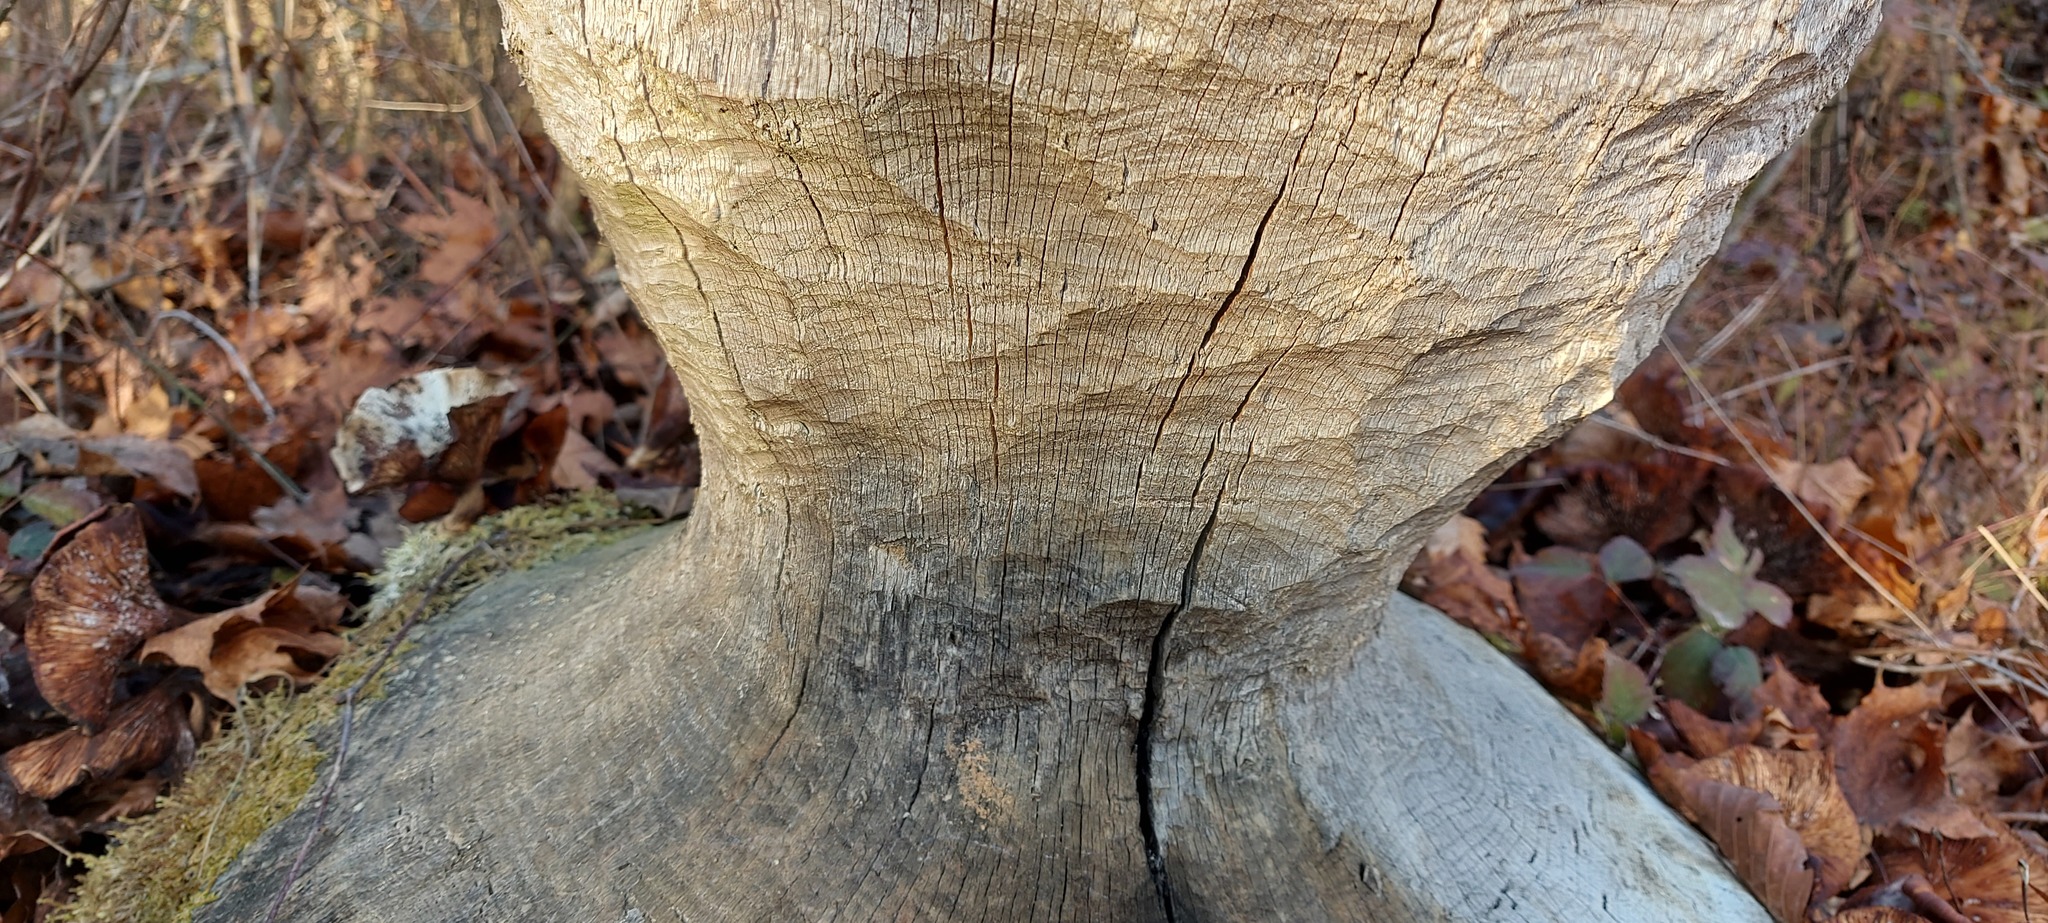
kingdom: Animalia
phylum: Chordata
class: Mammalia
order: Rodentia
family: Castoridae
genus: Castor
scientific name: Castor fiber
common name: Eurasian beaver
